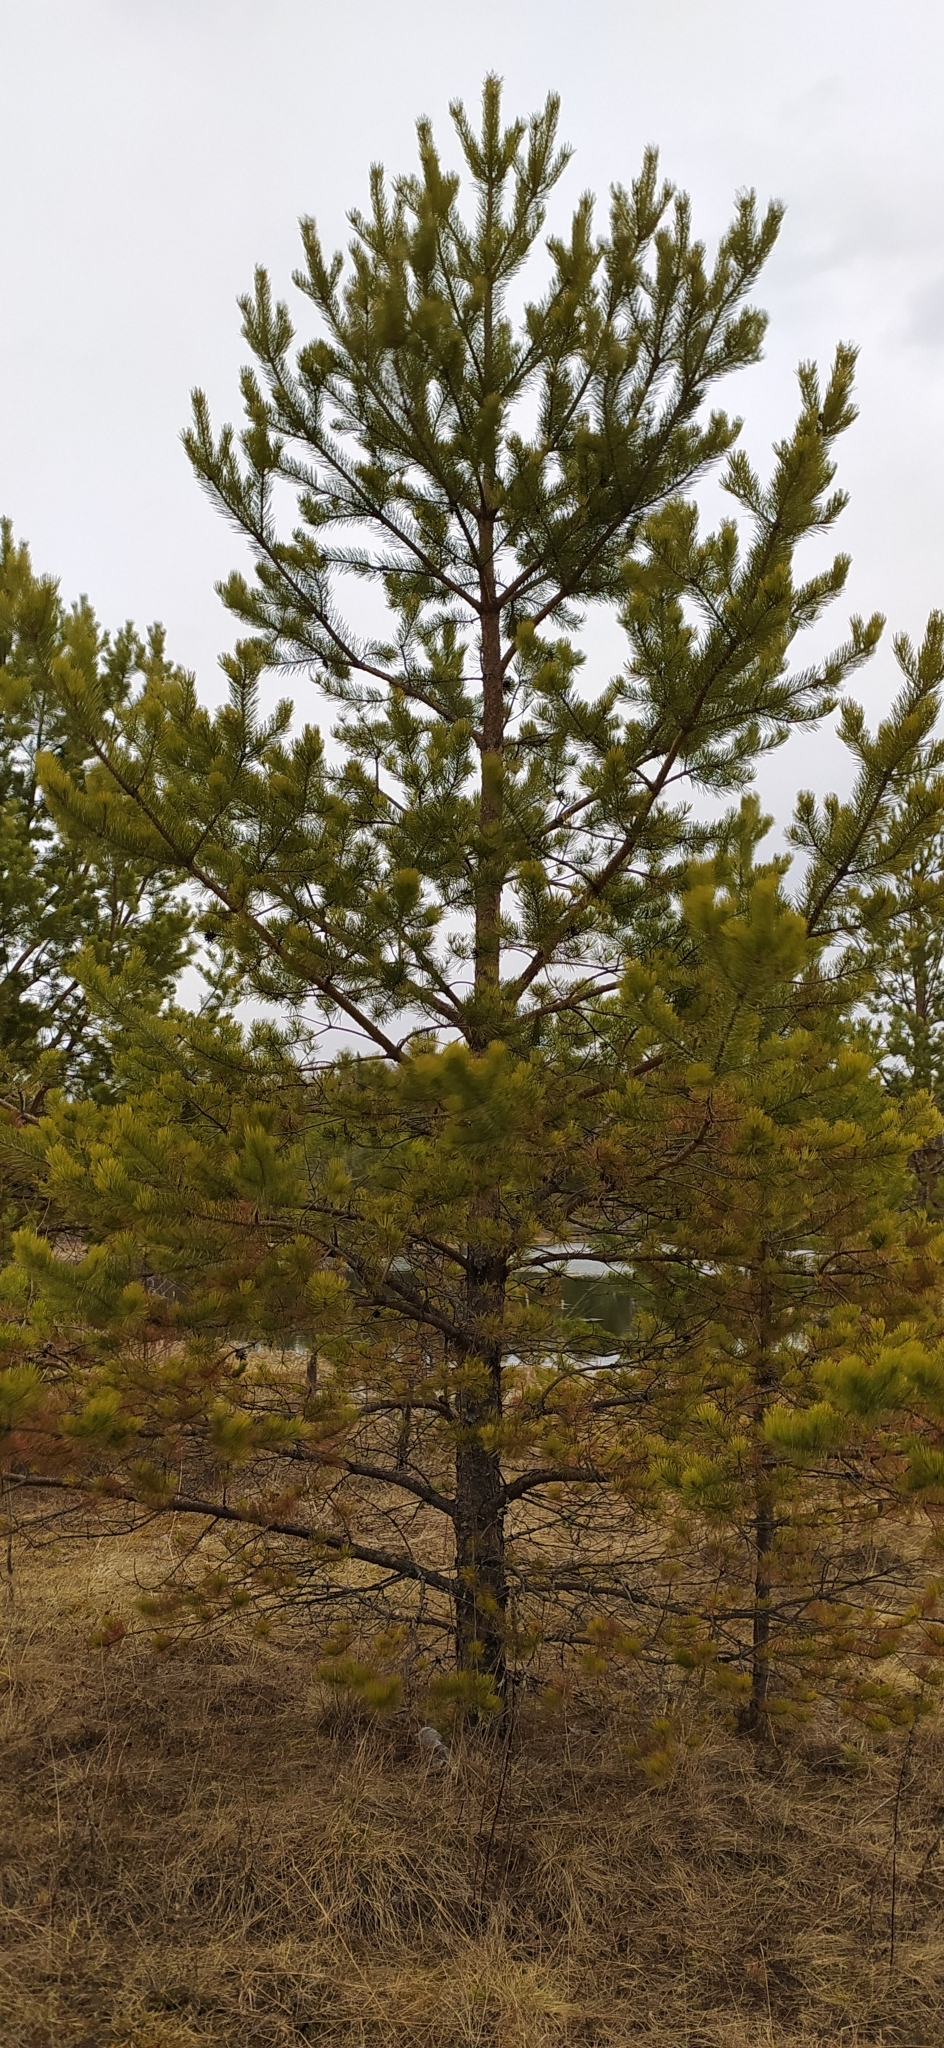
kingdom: Plantae
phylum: Tracheophyta
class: Pinopsida
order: Pinales
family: Pinaceae
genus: Pinus
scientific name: Pinus sylvestris
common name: Scots pine
